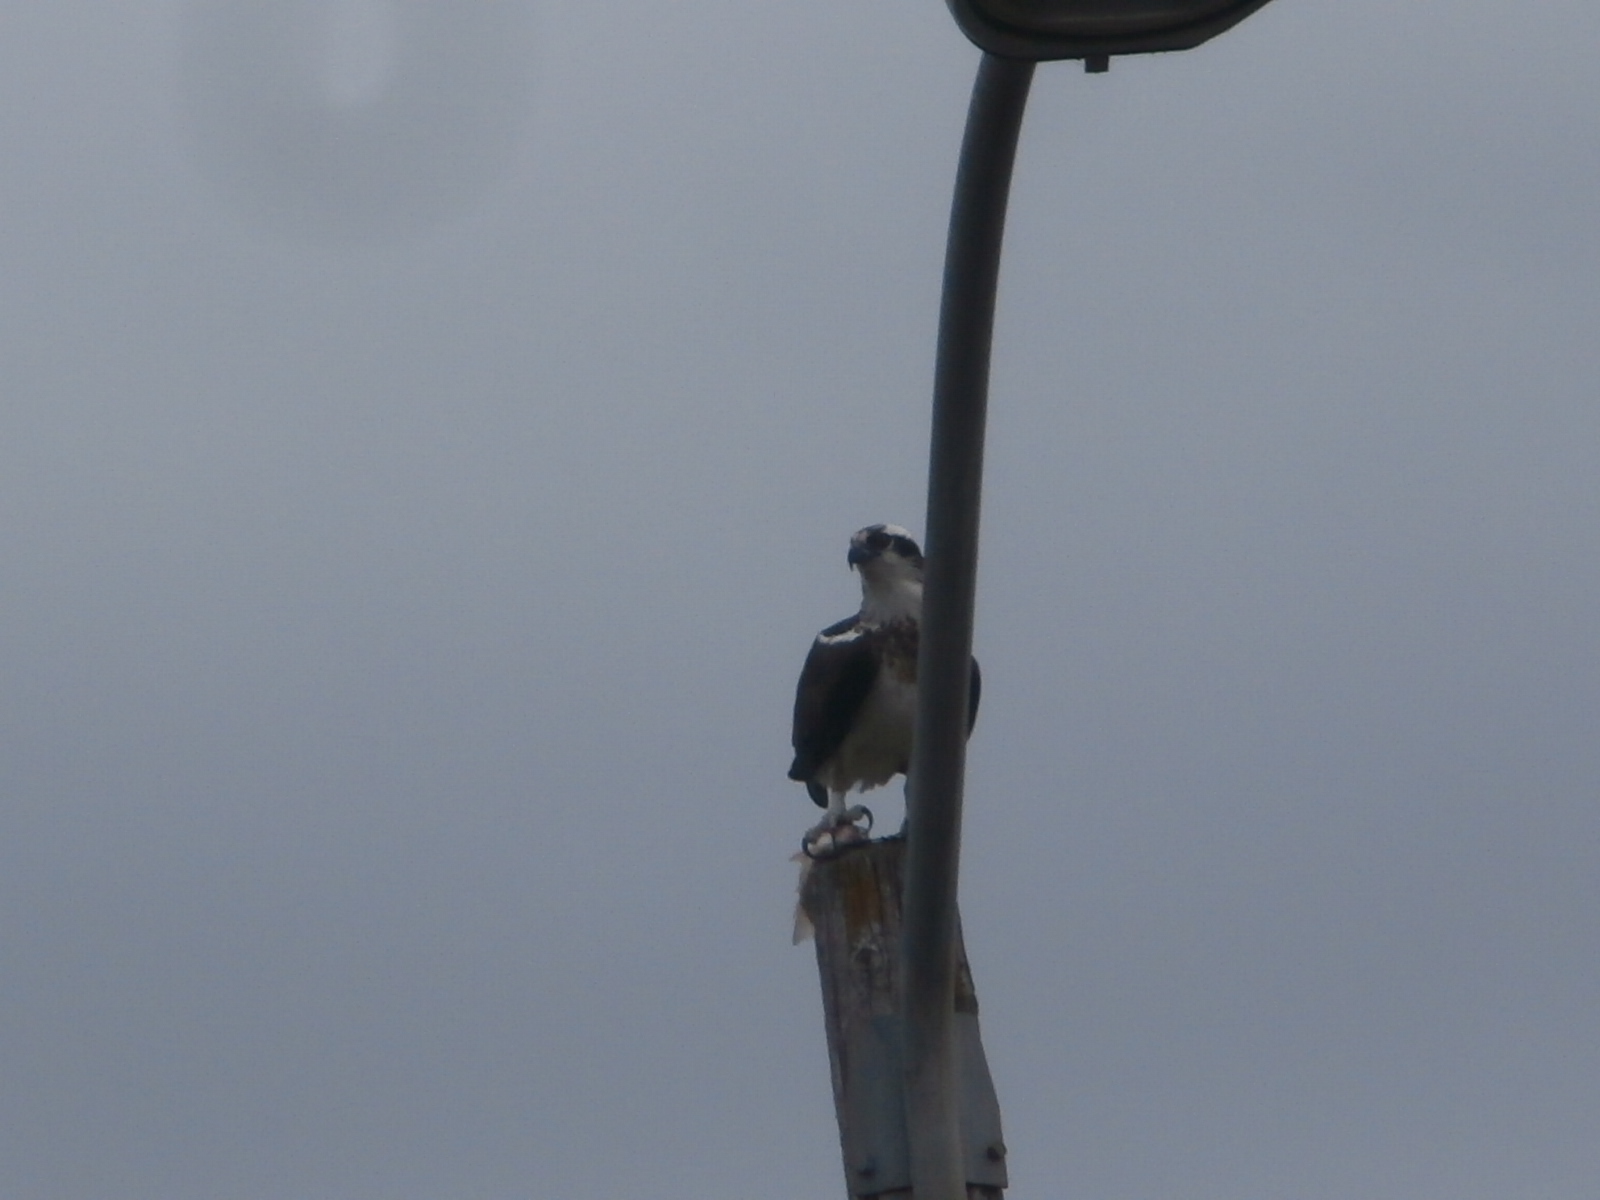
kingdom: Animalia
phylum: Chordata
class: Aves
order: Accipitriformes
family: Pandionidae
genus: Pandion
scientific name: Pandion haliaetus
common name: Osprey
